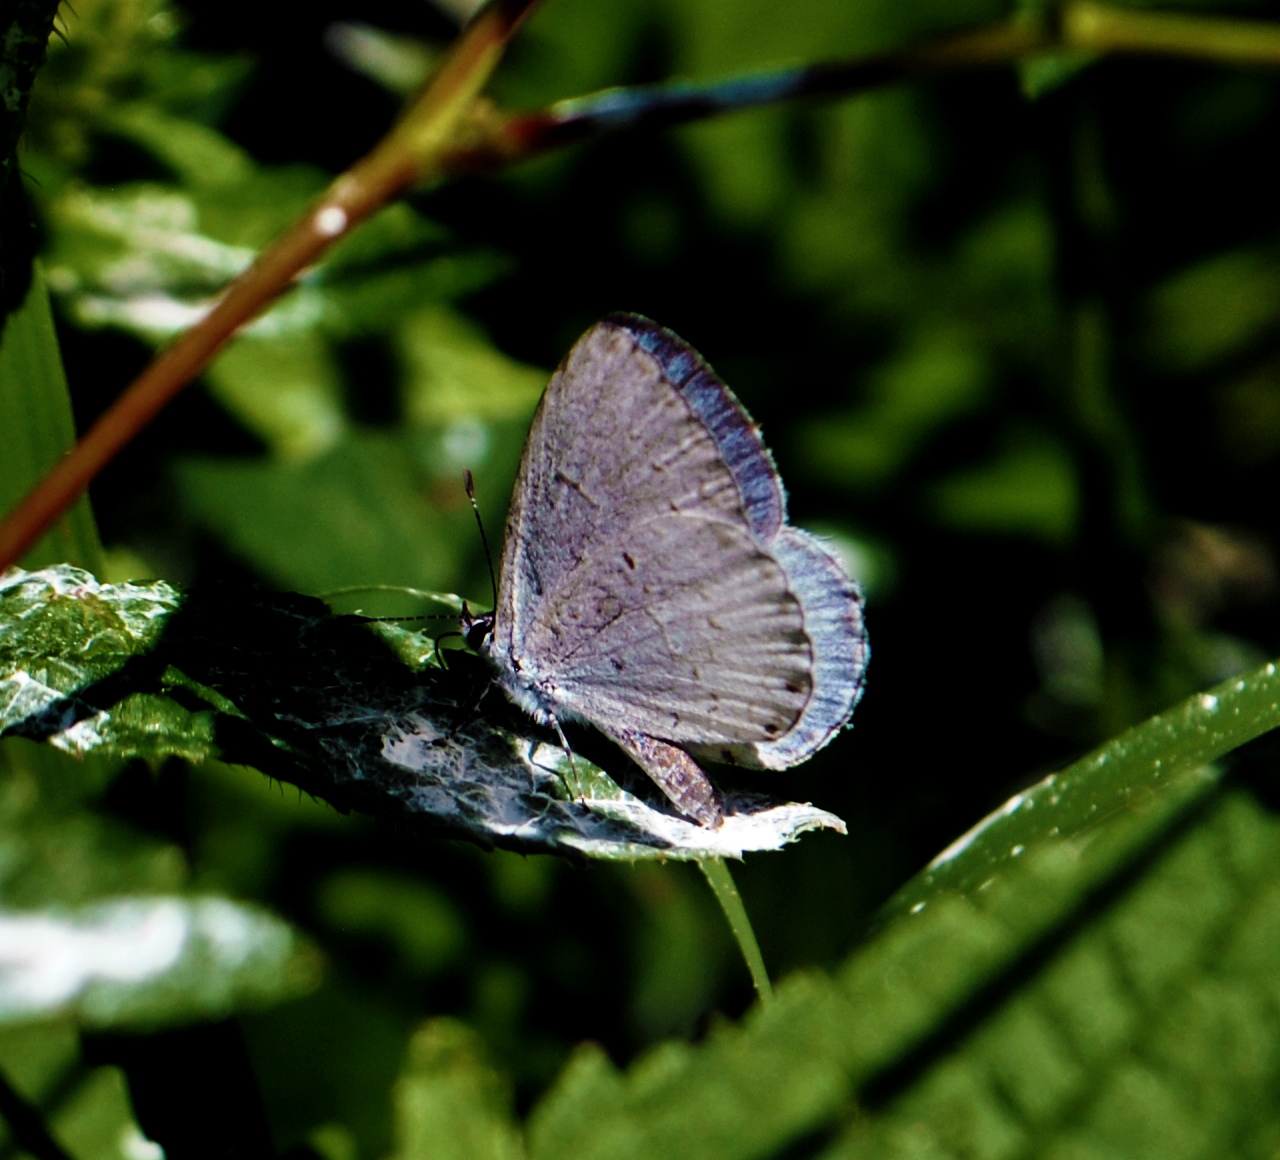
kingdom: Animalia
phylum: Arthropoda
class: Insecta
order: Lepidoptera
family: Lycaenidae
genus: Cyaniris
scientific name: Cyaniris neglecta
